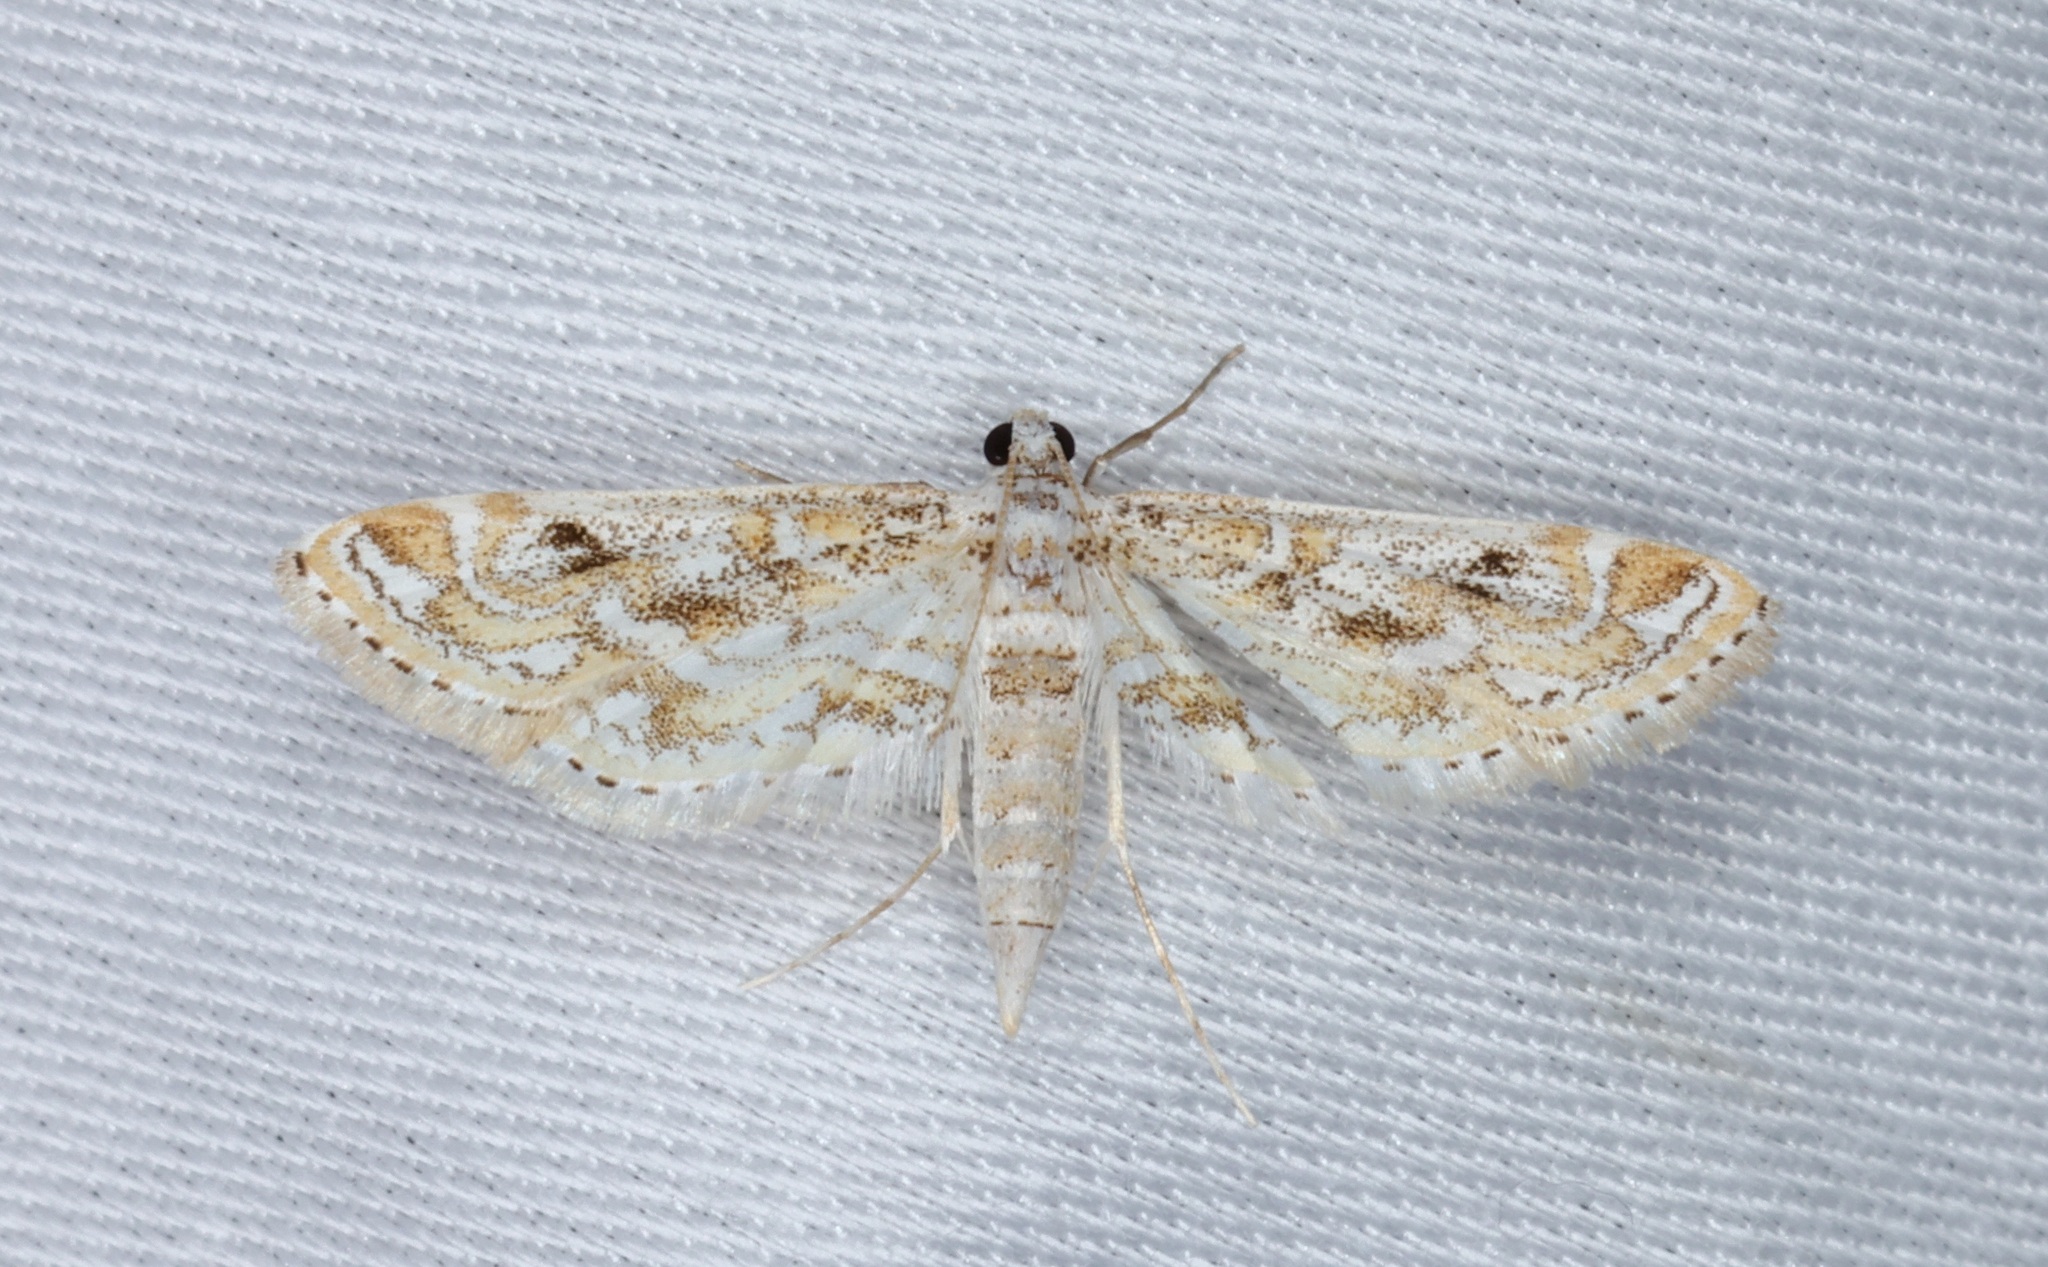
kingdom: Animalia
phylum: Arthropoda
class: Insecta
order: Lepidoptera
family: Crambidae
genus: Parapoynx
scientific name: Parapoynx diminutalis
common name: Hydrilla leafcutter
